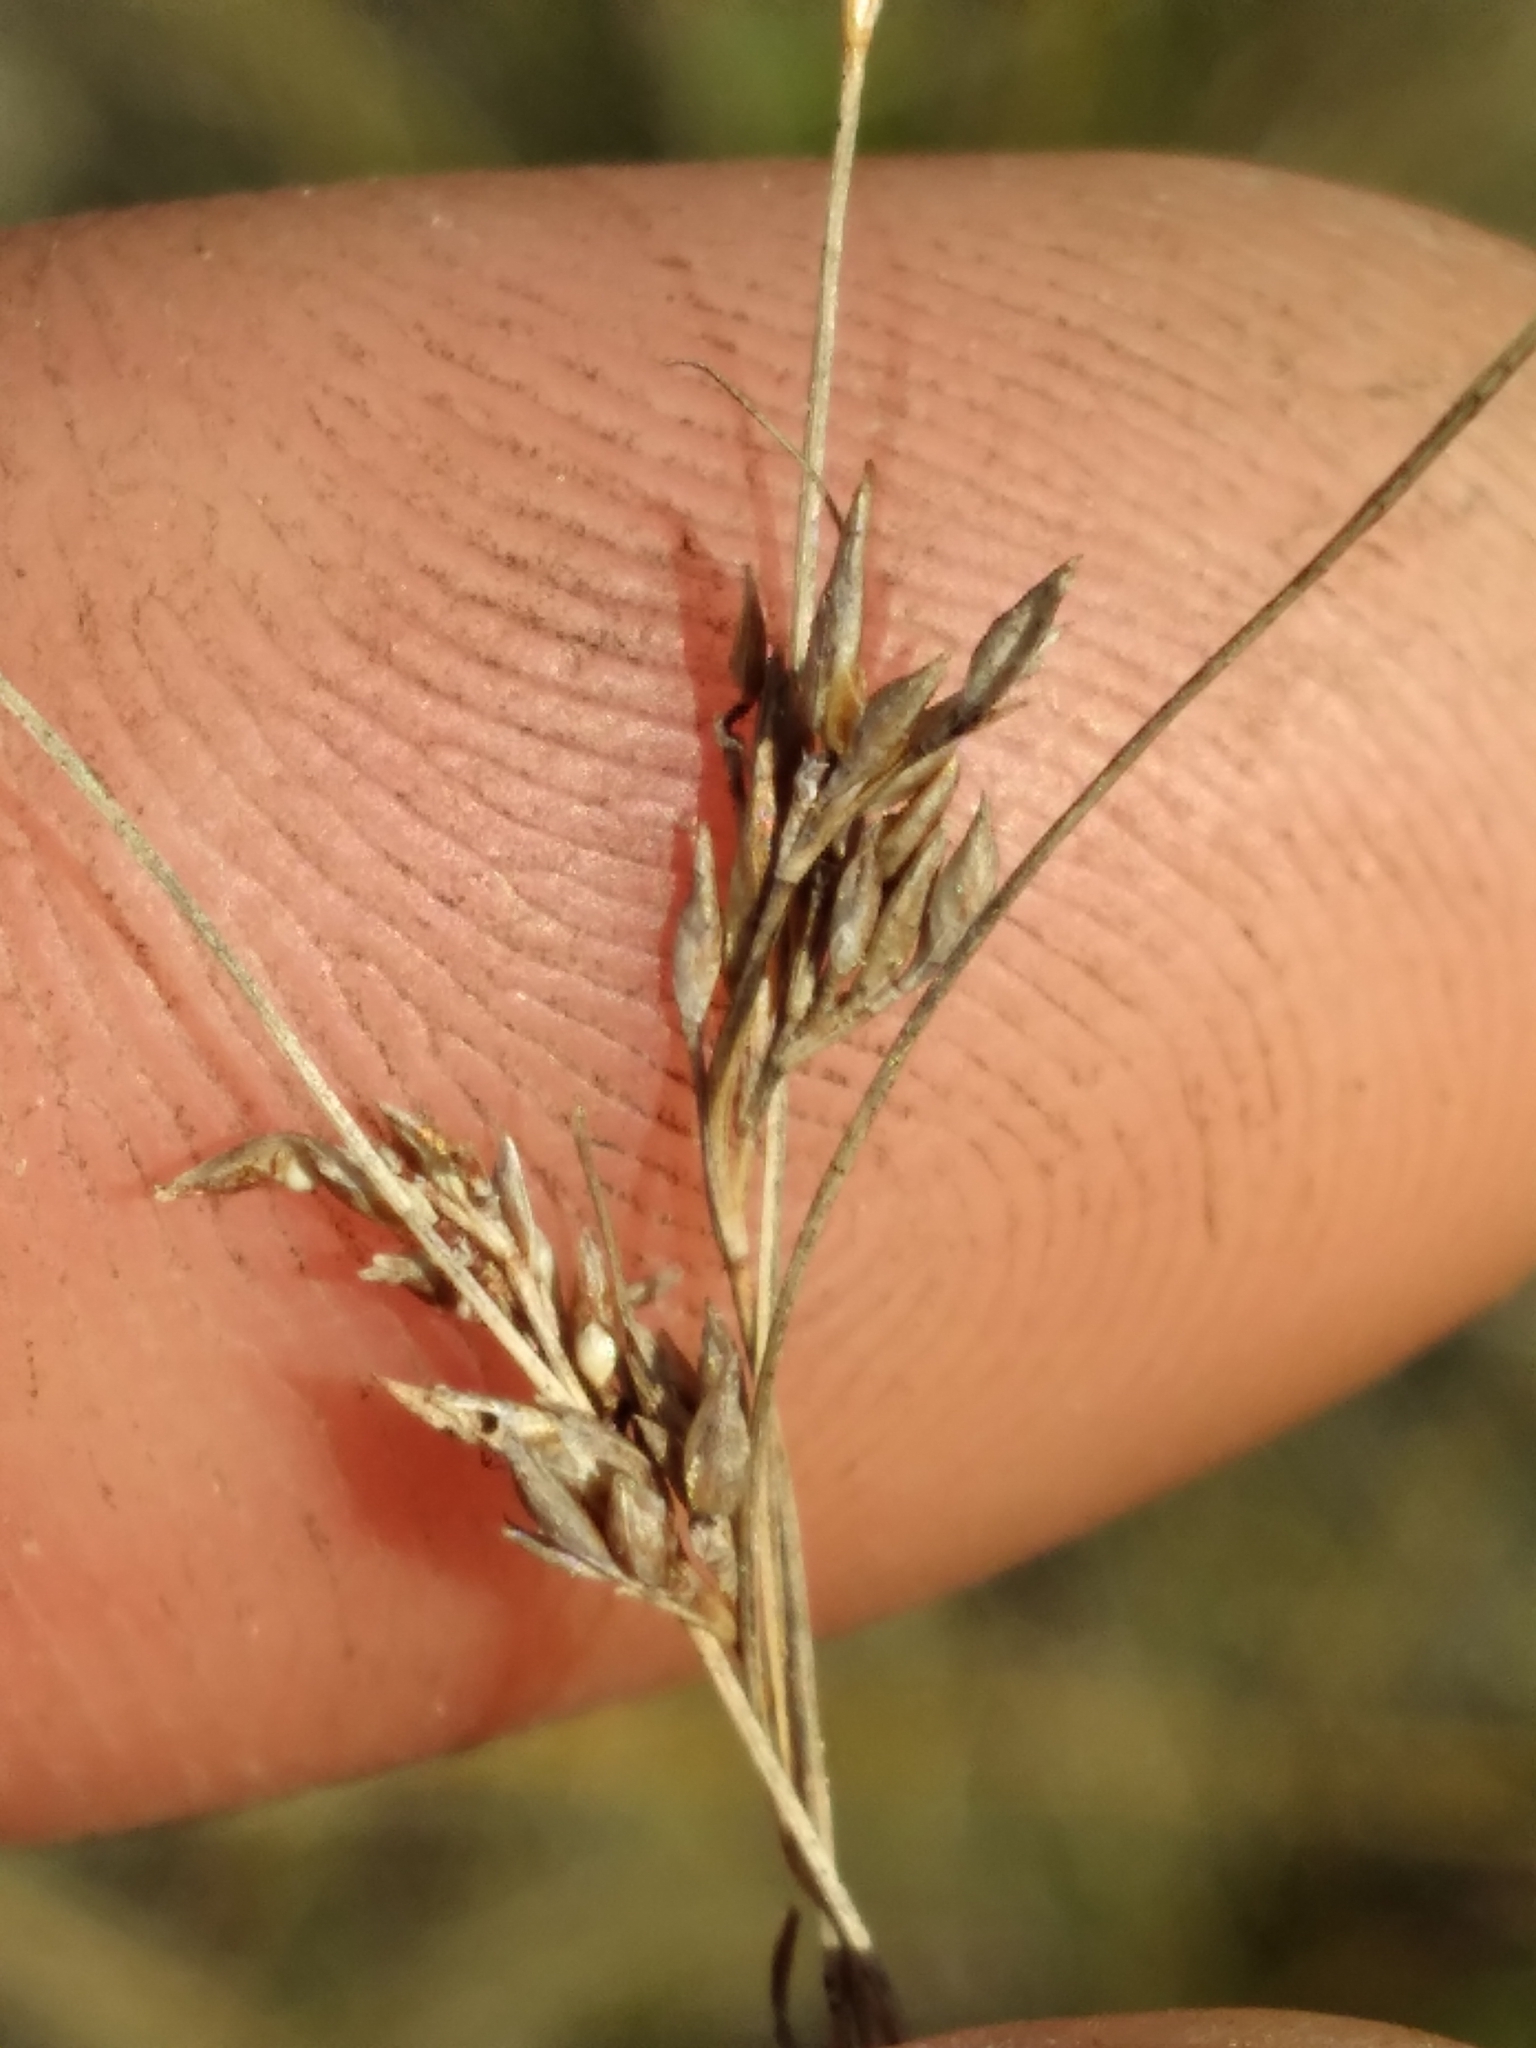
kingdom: Plantae
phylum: Tracheophyta
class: Liliopsida
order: Poales
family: Cyperaceae
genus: Rhynchospora
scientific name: Rhynchospora divergens
